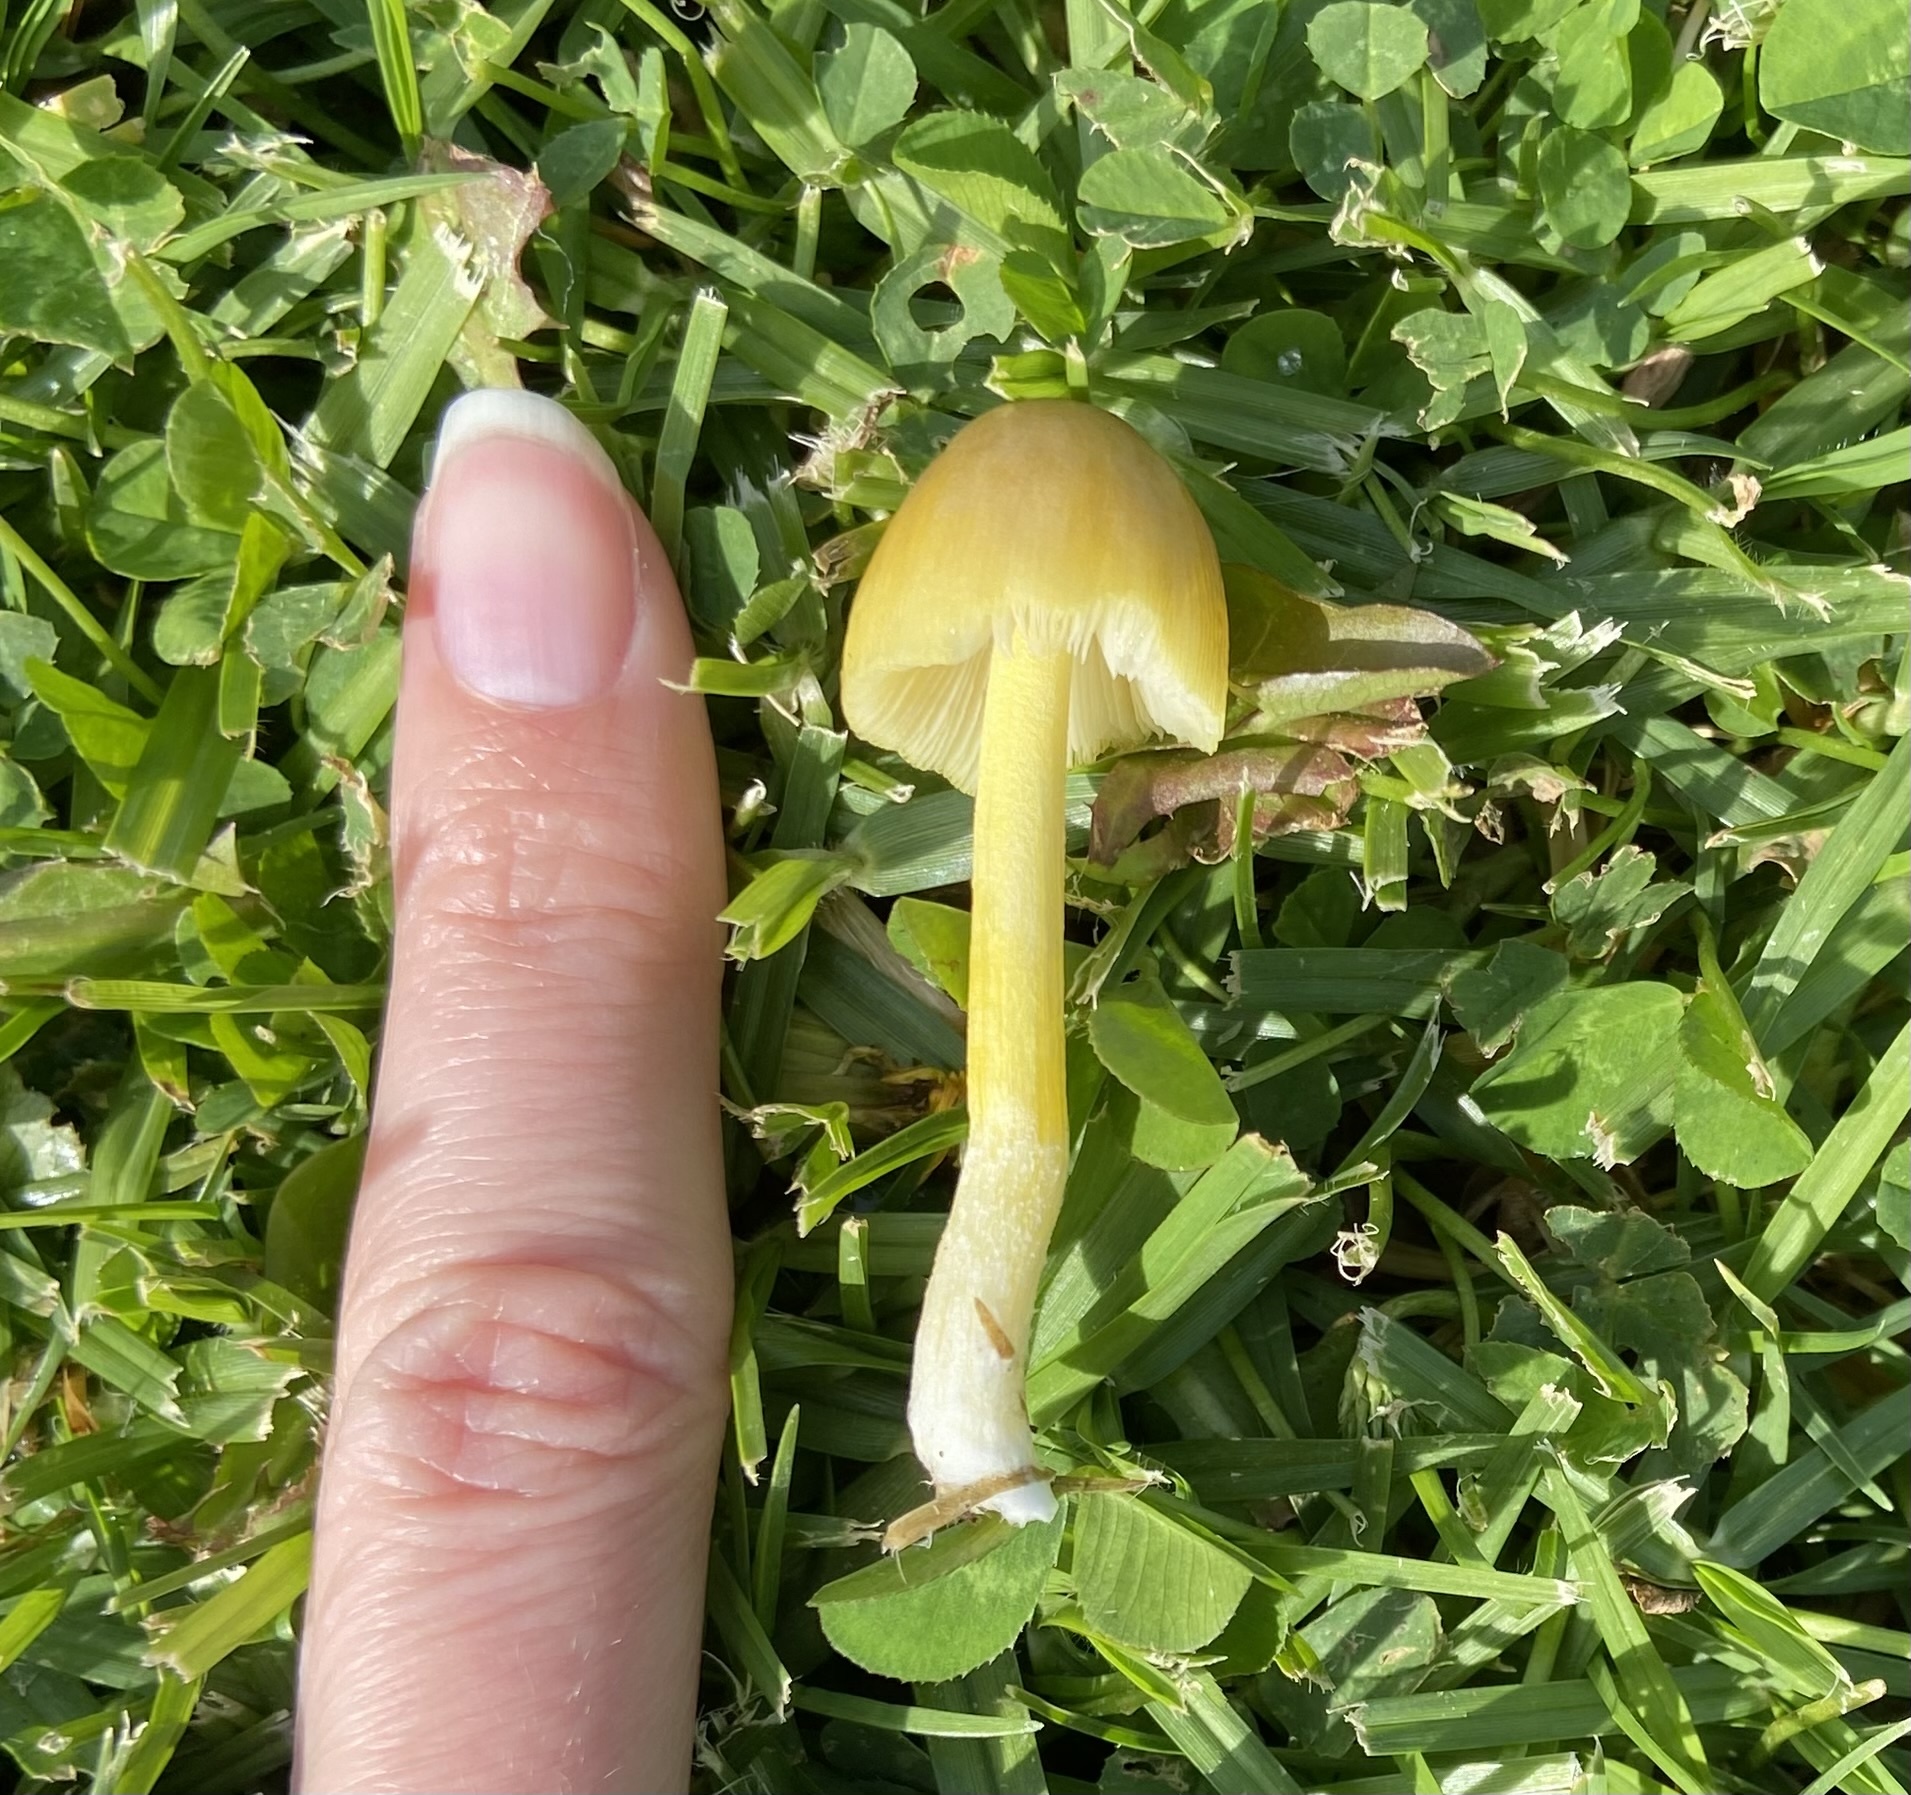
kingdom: Fungi
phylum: Basidiomycota
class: Agaricomycetes
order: Agaricales
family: Bolbitiaceae
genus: Bolbitius
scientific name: Bolbitius titubans
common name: Yellow fieldcap
